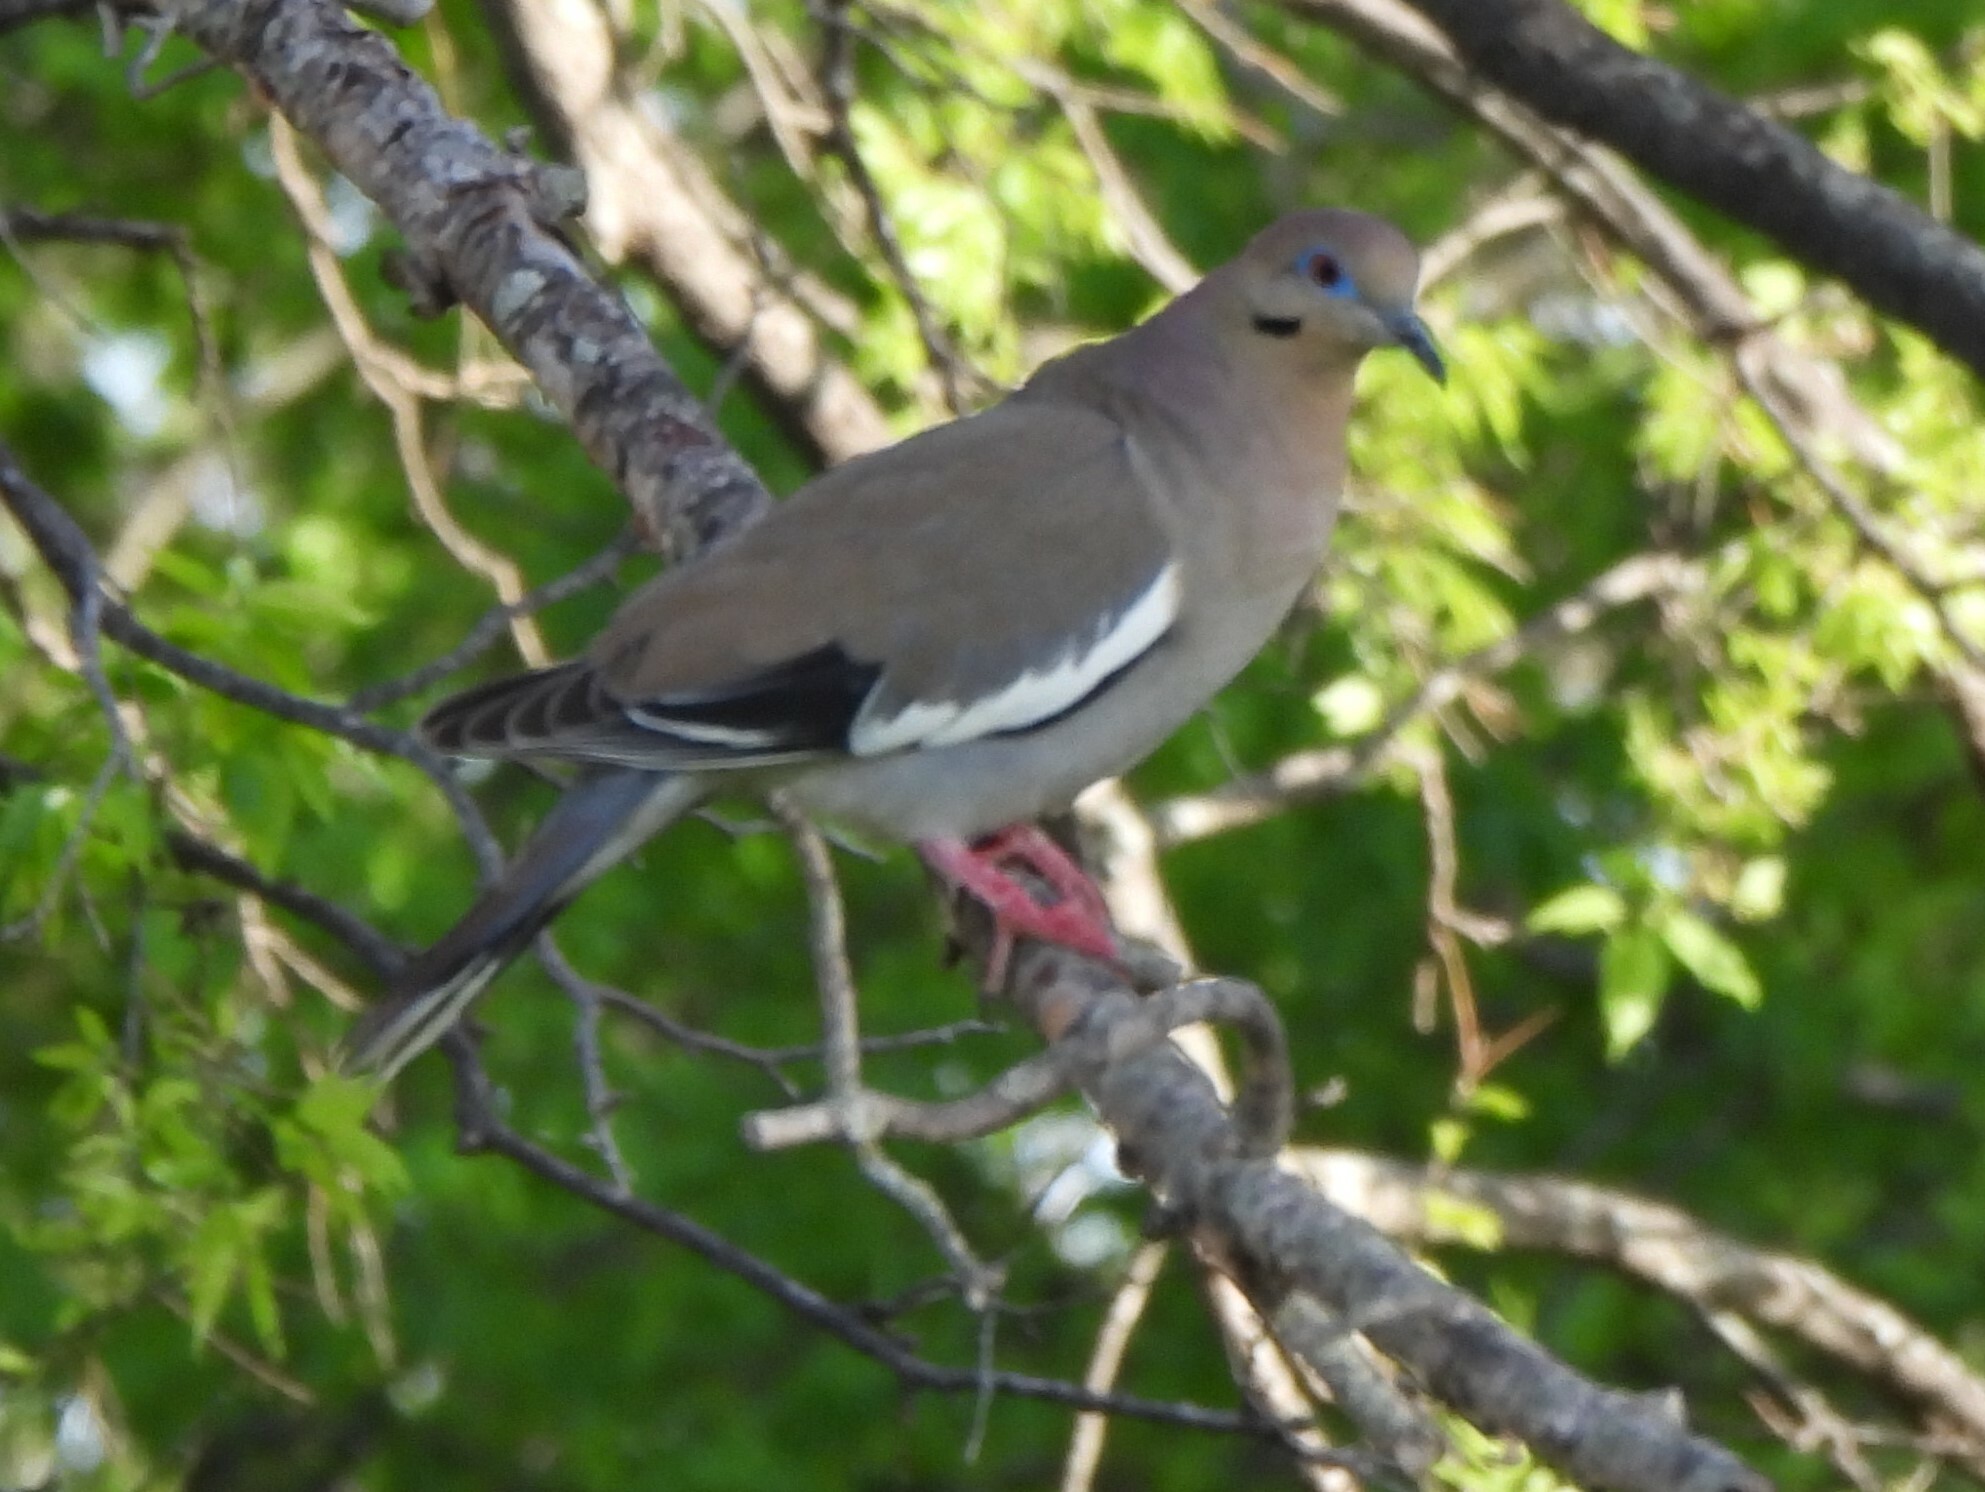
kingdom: Animalia
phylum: Chordata
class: Aves
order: Columbiformes
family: Columbidae
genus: Zenaida
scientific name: Zenaida asiatica
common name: White-winged dove
